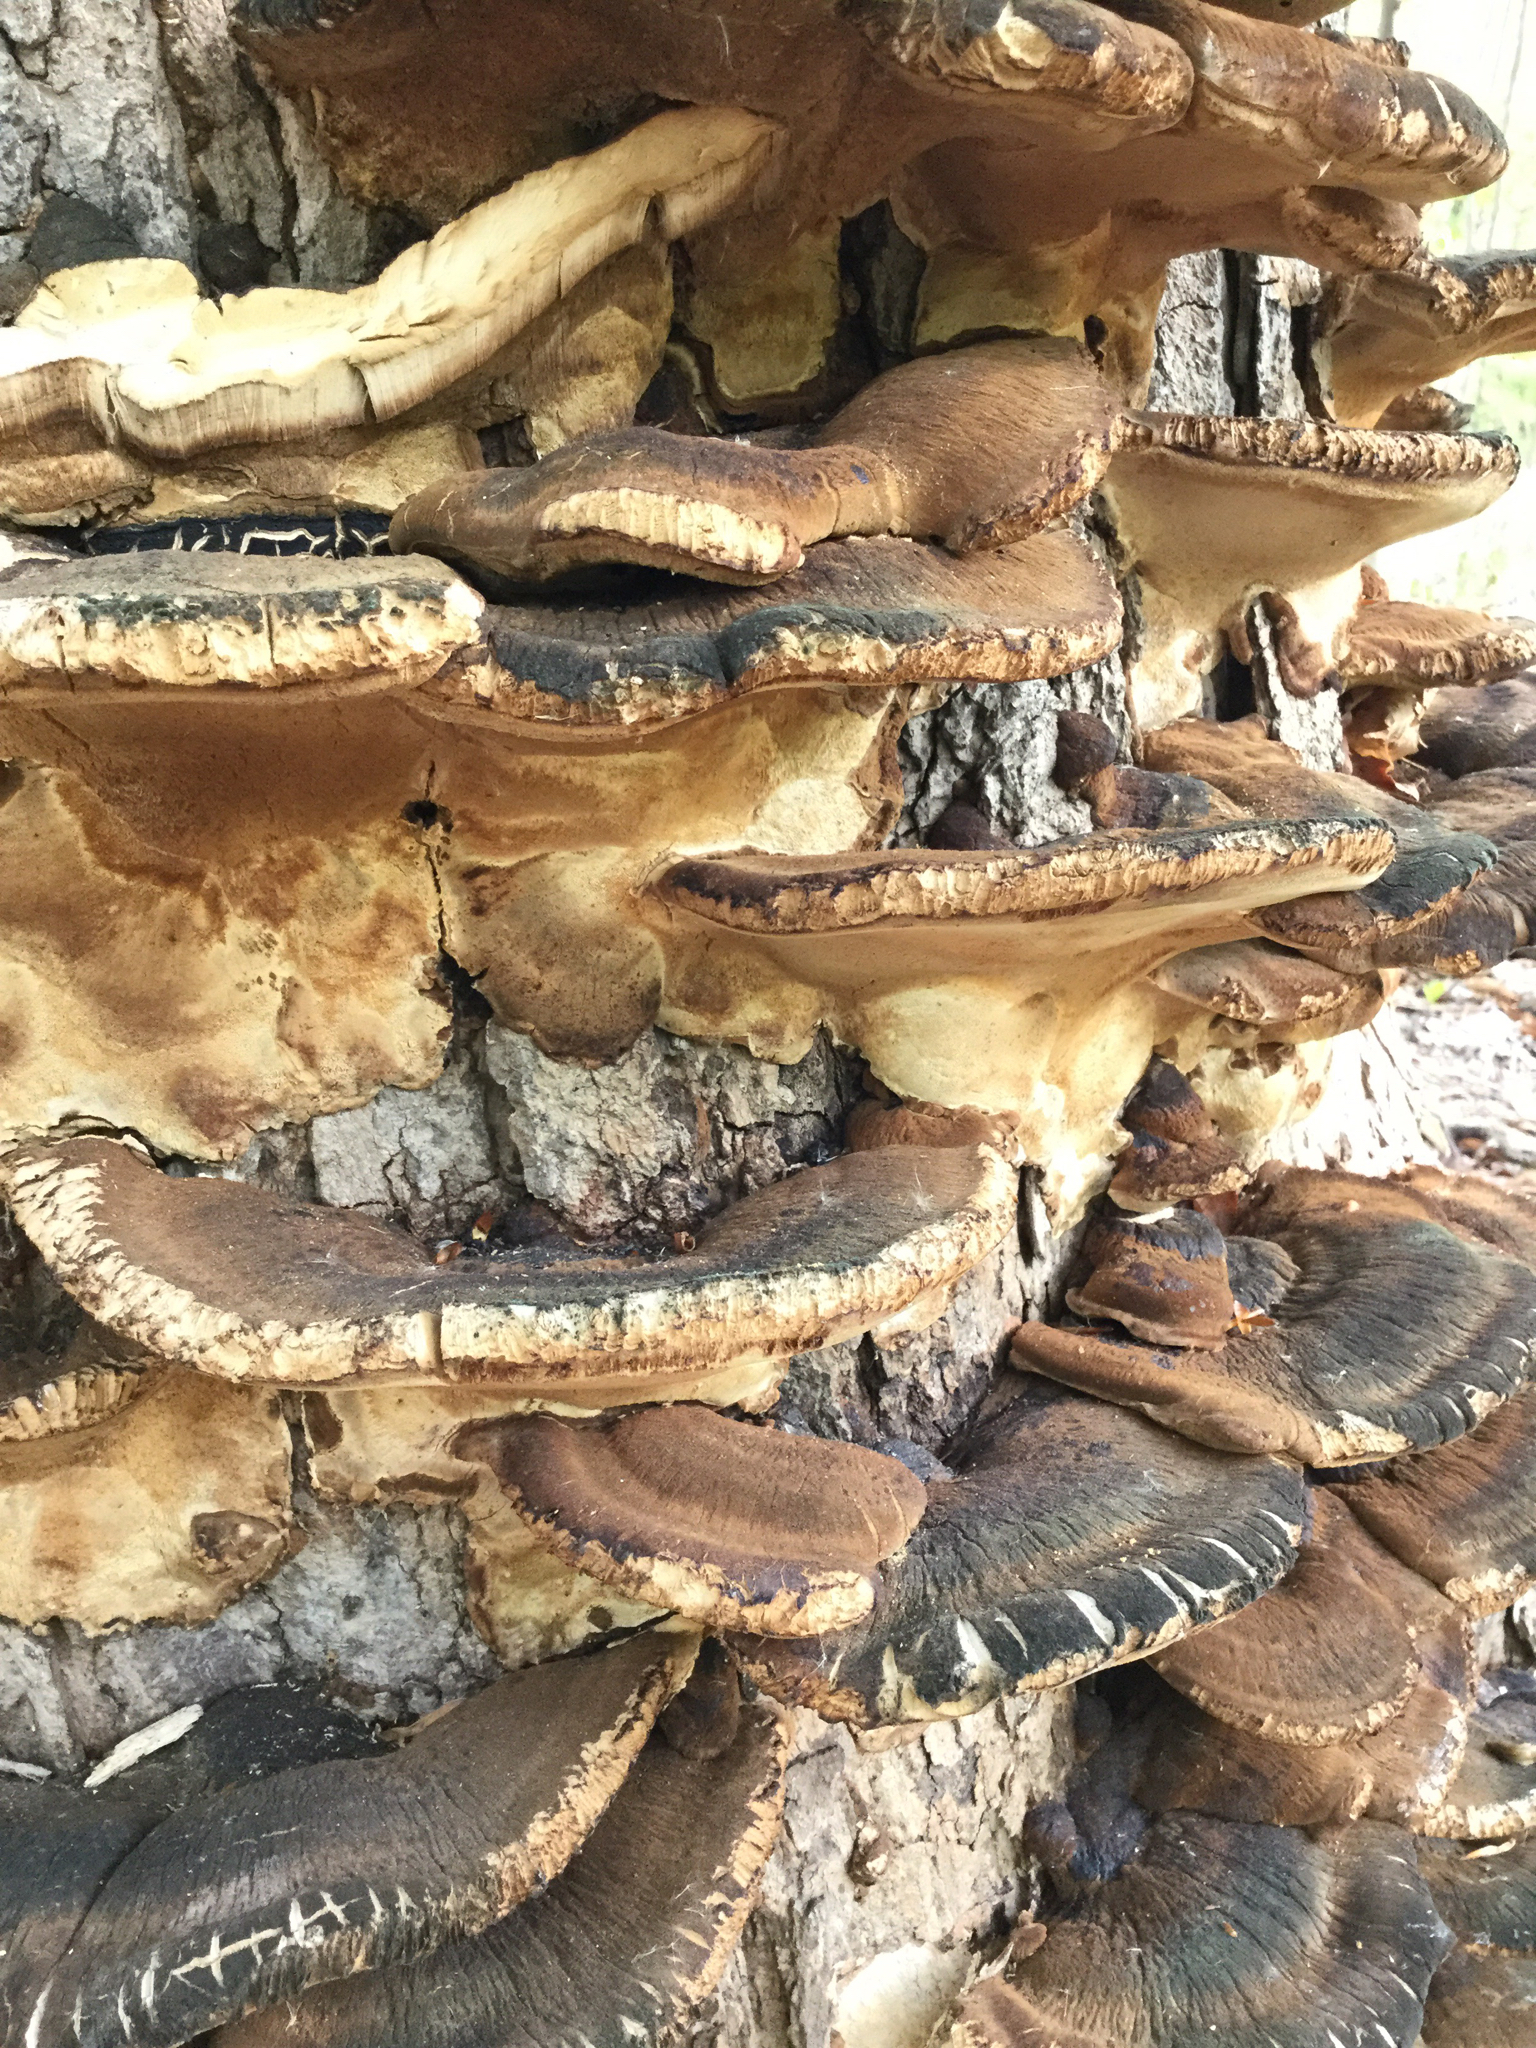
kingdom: Fungi
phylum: Basidiomycota
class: Agaricomycetes
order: Polyporales
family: Ischnodermataceae
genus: Ischnoderma
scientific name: Ischnoderma resinosum
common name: Resinous polypore
